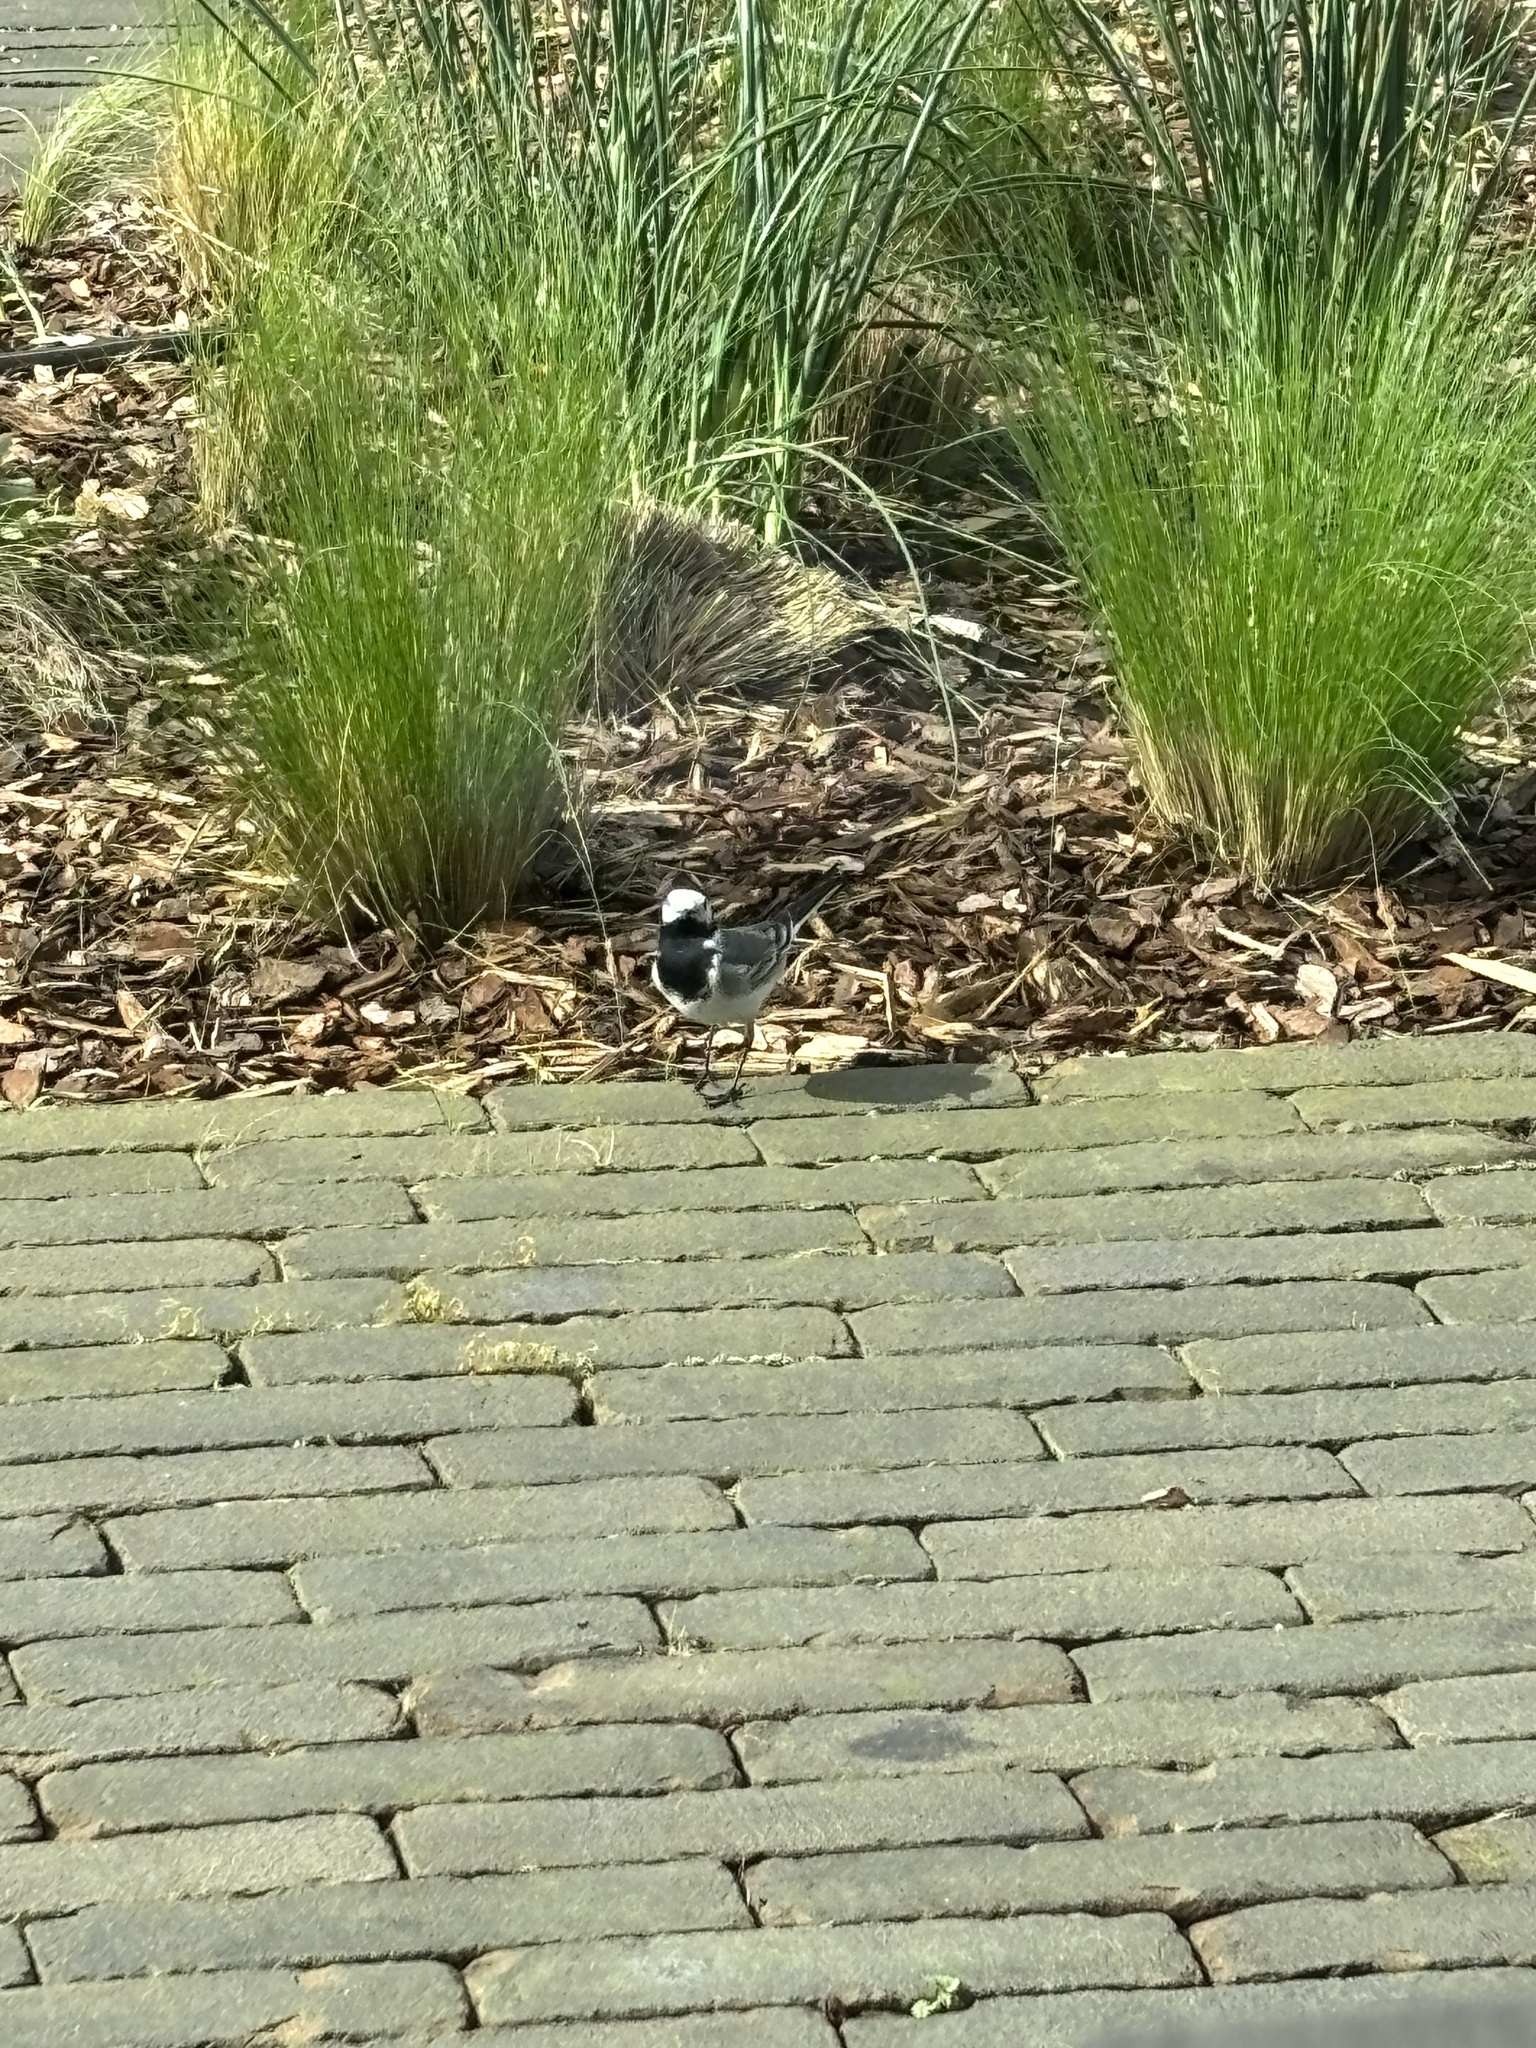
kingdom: Animalia
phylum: Chordata
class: Aves
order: Passeriformes
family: Motacillidae
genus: Motacilla
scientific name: Motacilla alba
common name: White wagtail
